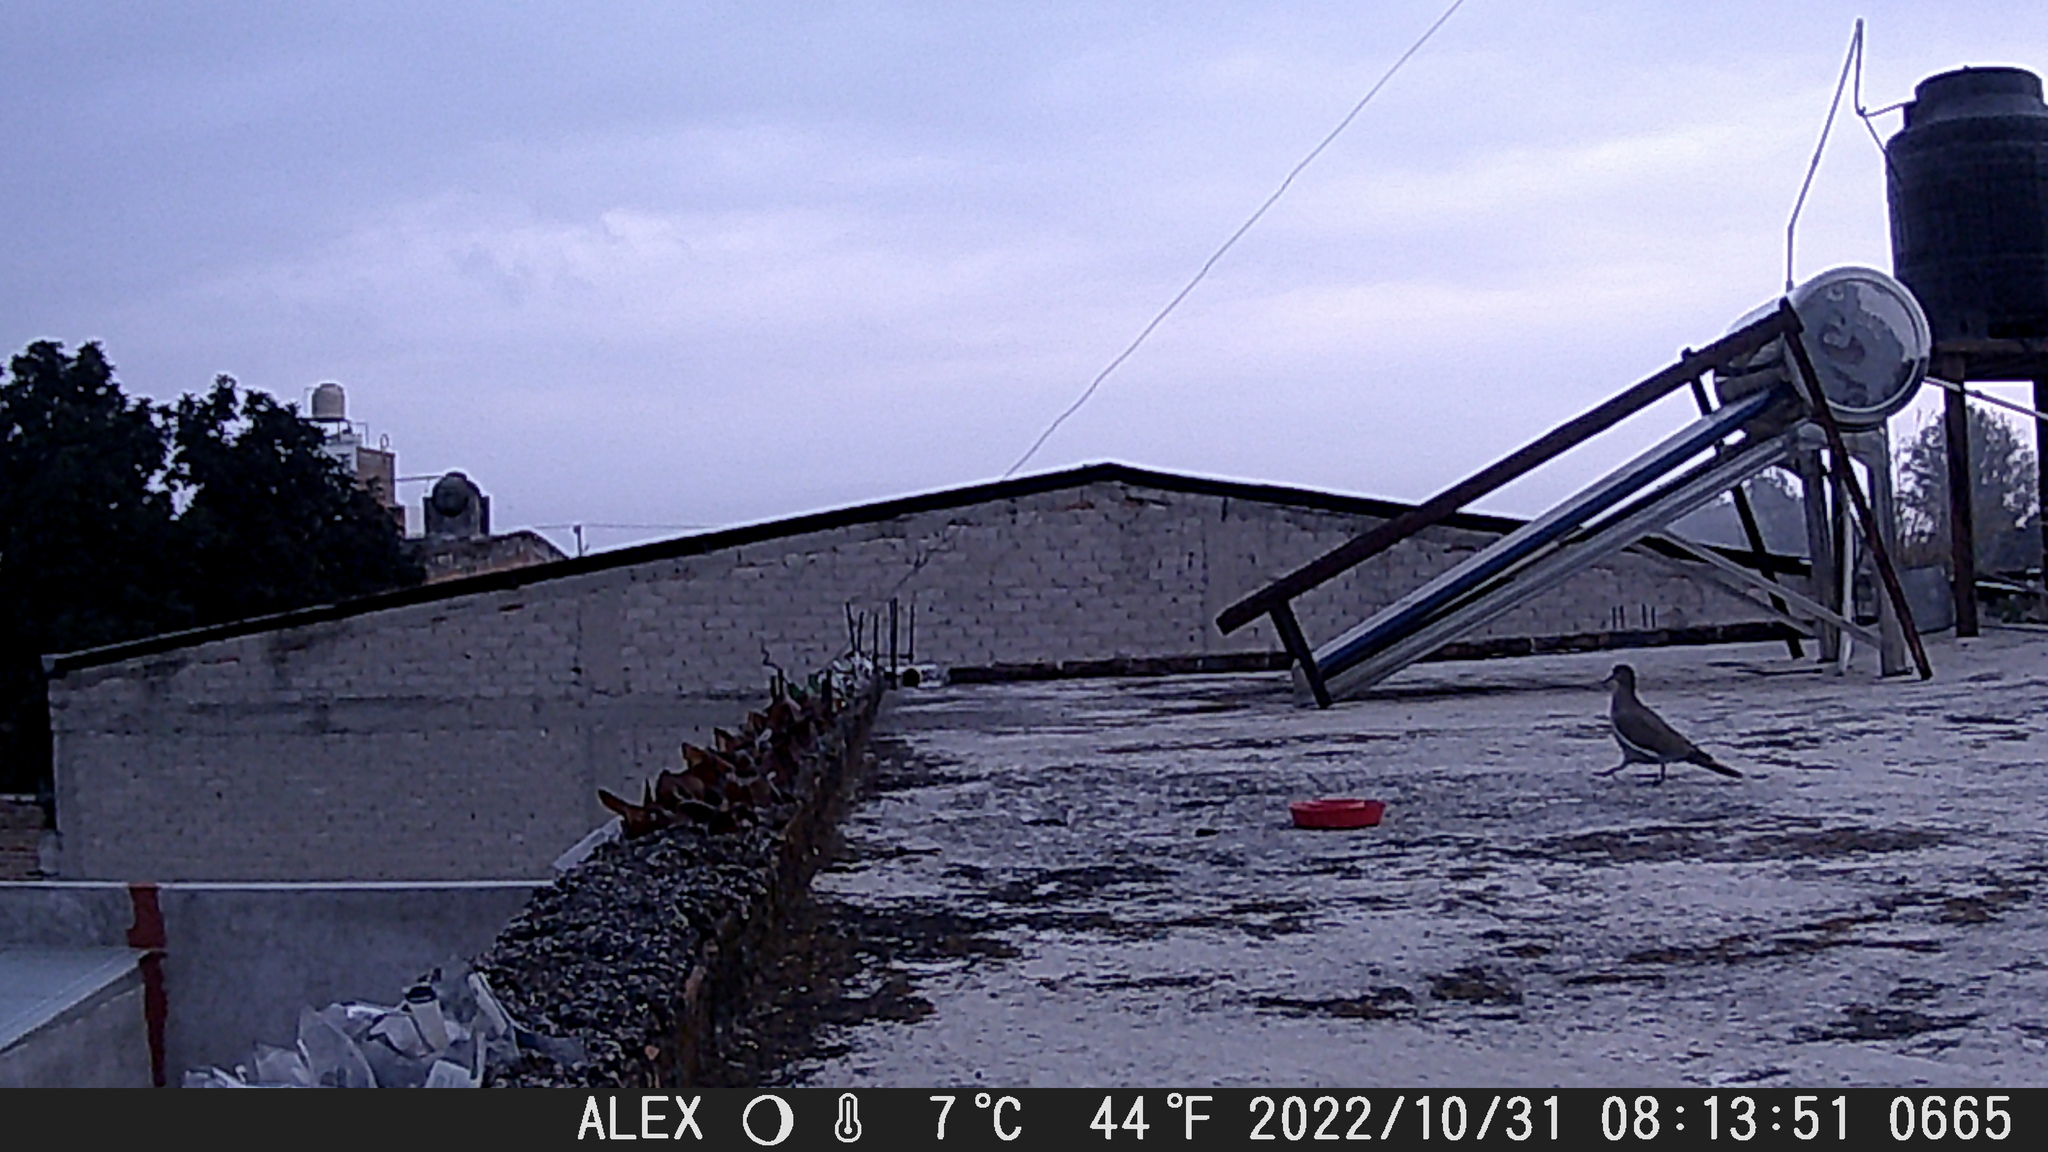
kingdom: Animalia
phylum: Chordata
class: Aves
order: Columbiformes
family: Columbidae
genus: Zenaida
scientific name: Zenaida asiatica
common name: White-winged dove
